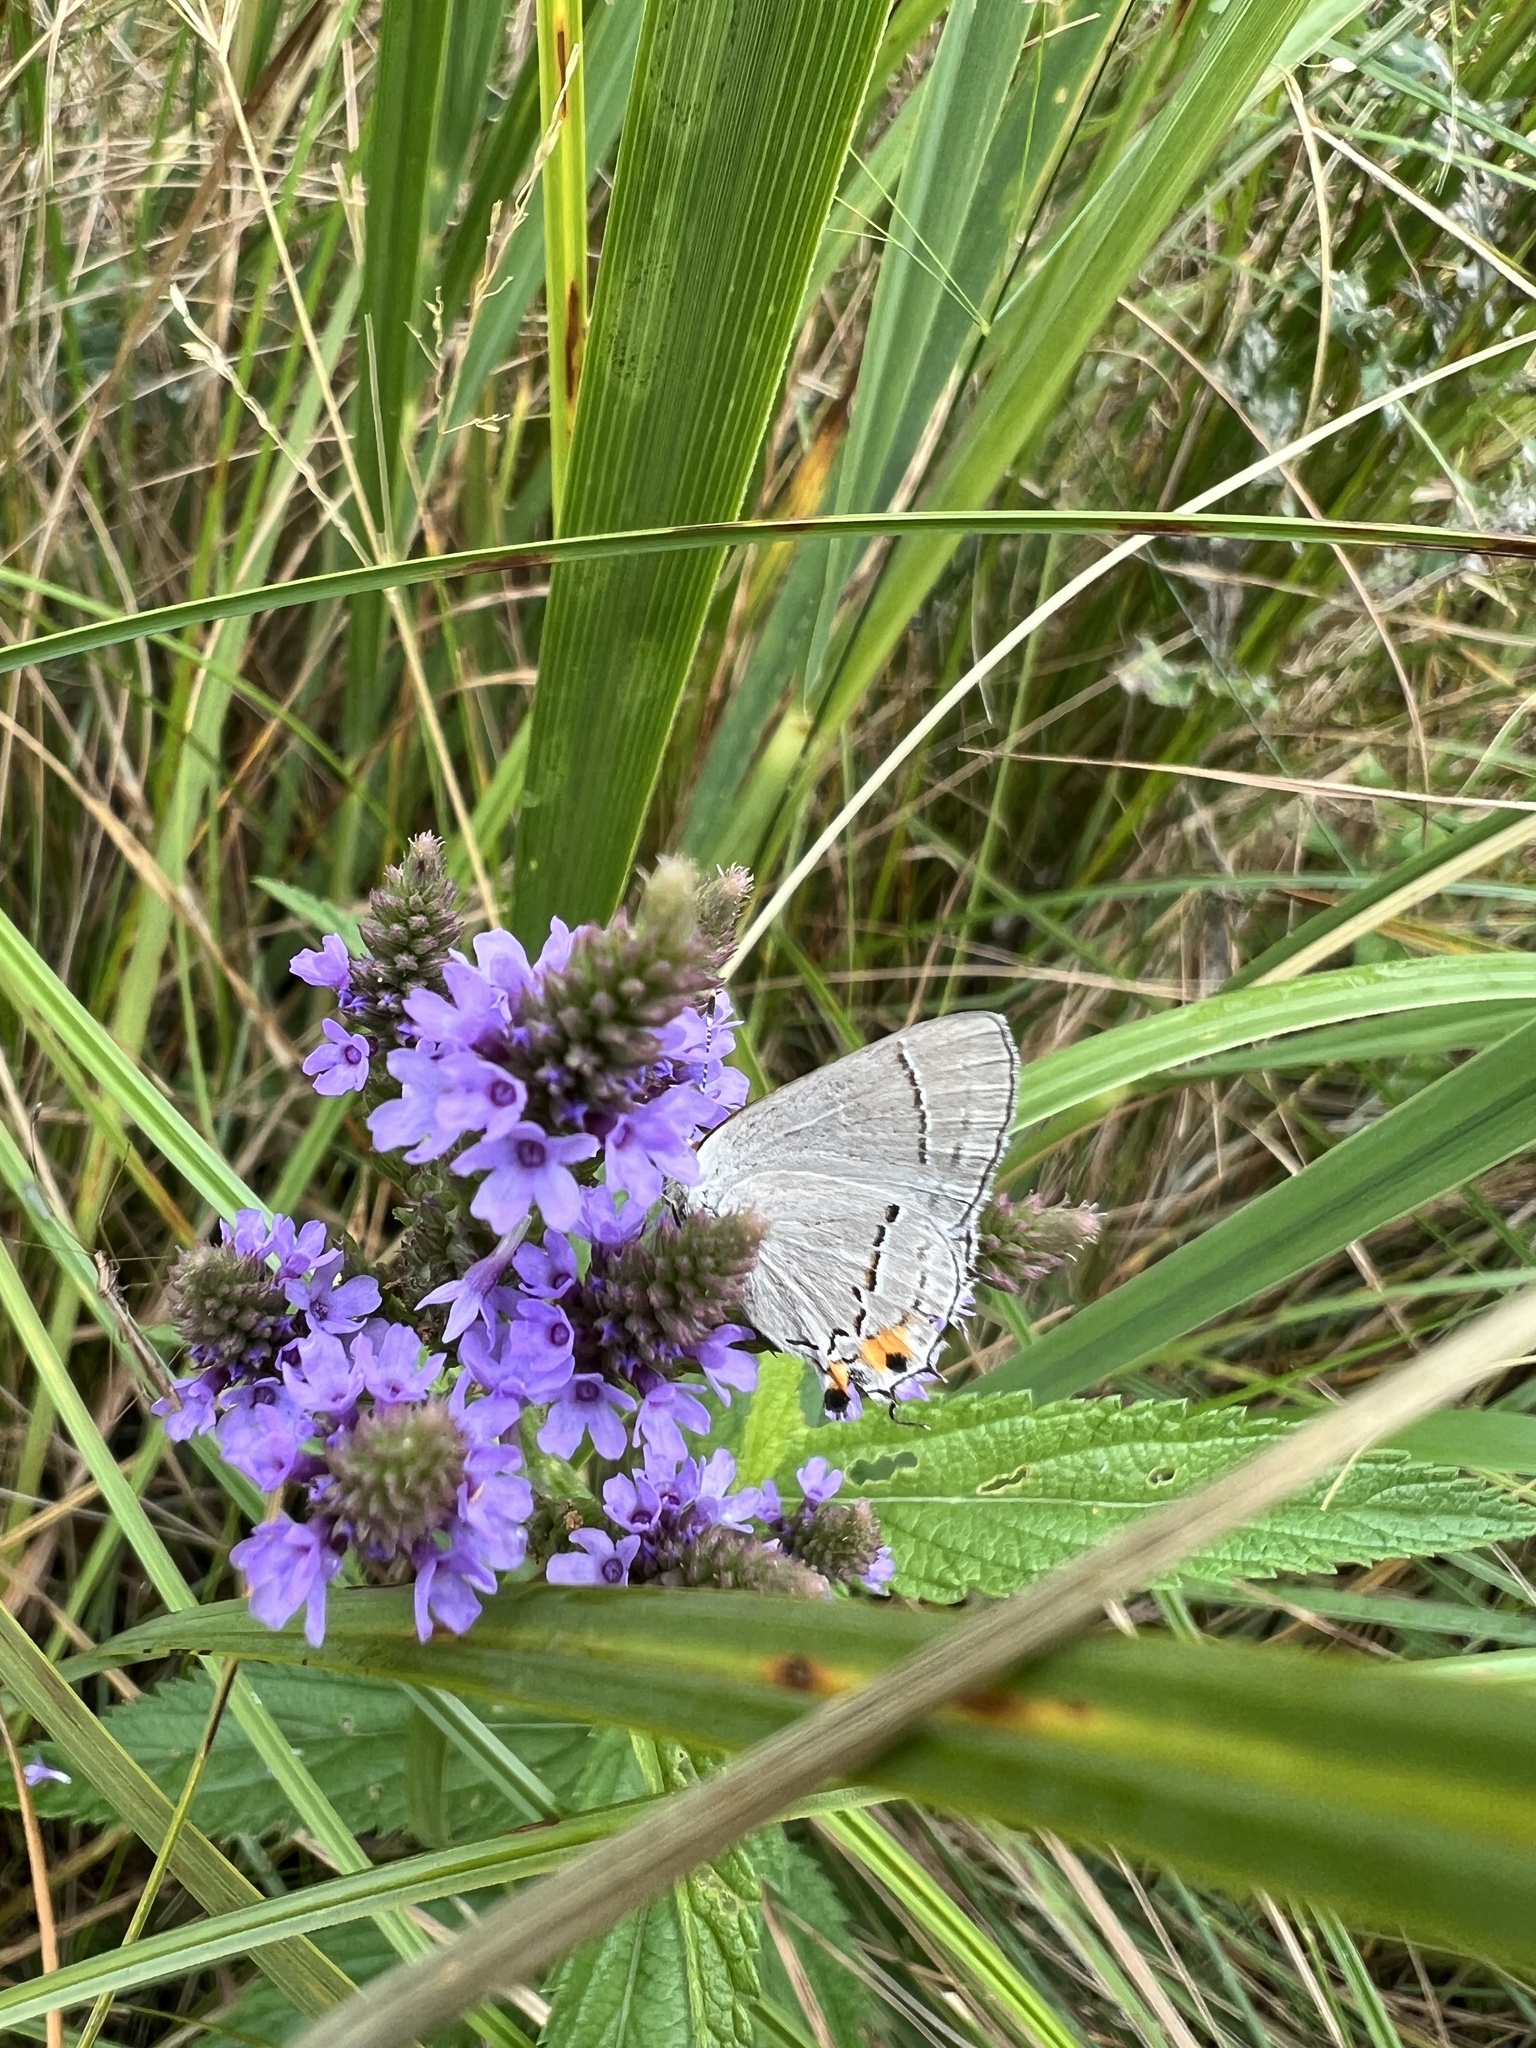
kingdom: Animalia
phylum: Arthropoda
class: Insecta
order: Lepidoptera
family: Lycaenidae
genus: Strymon
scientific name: Strymon melinus
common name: Gray hairstreak
